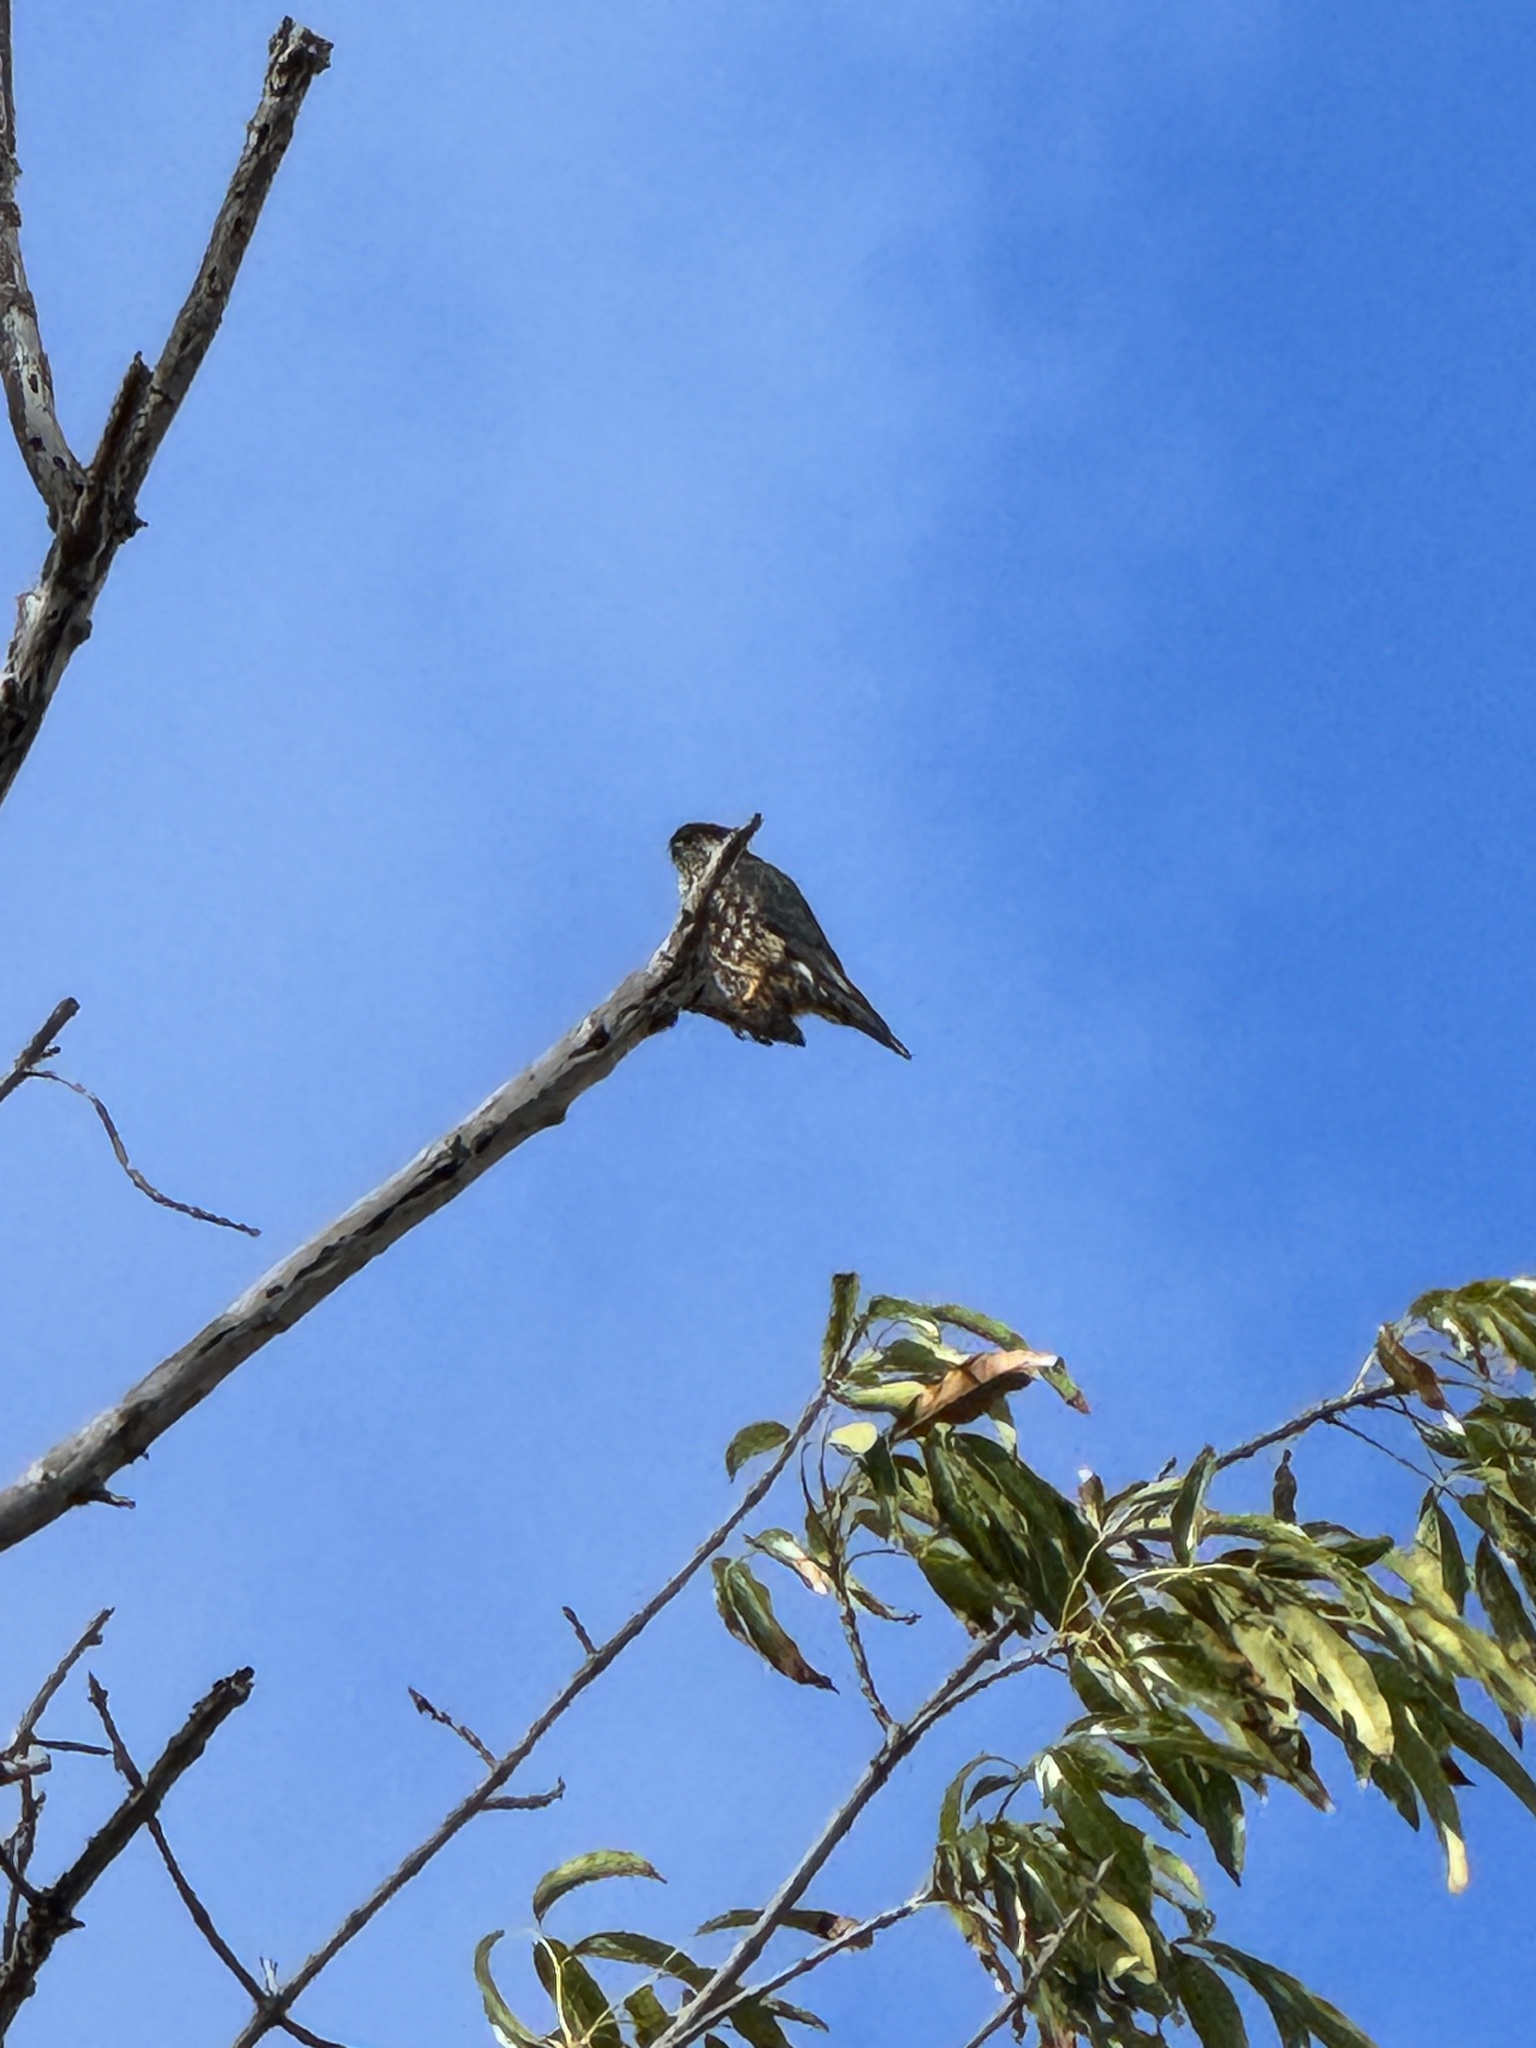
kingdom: Animalia
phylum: Chordata
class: Aves
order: Falconiformes
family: Falconidae
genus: Falco
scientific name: Falco columbarius
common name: Merlin
